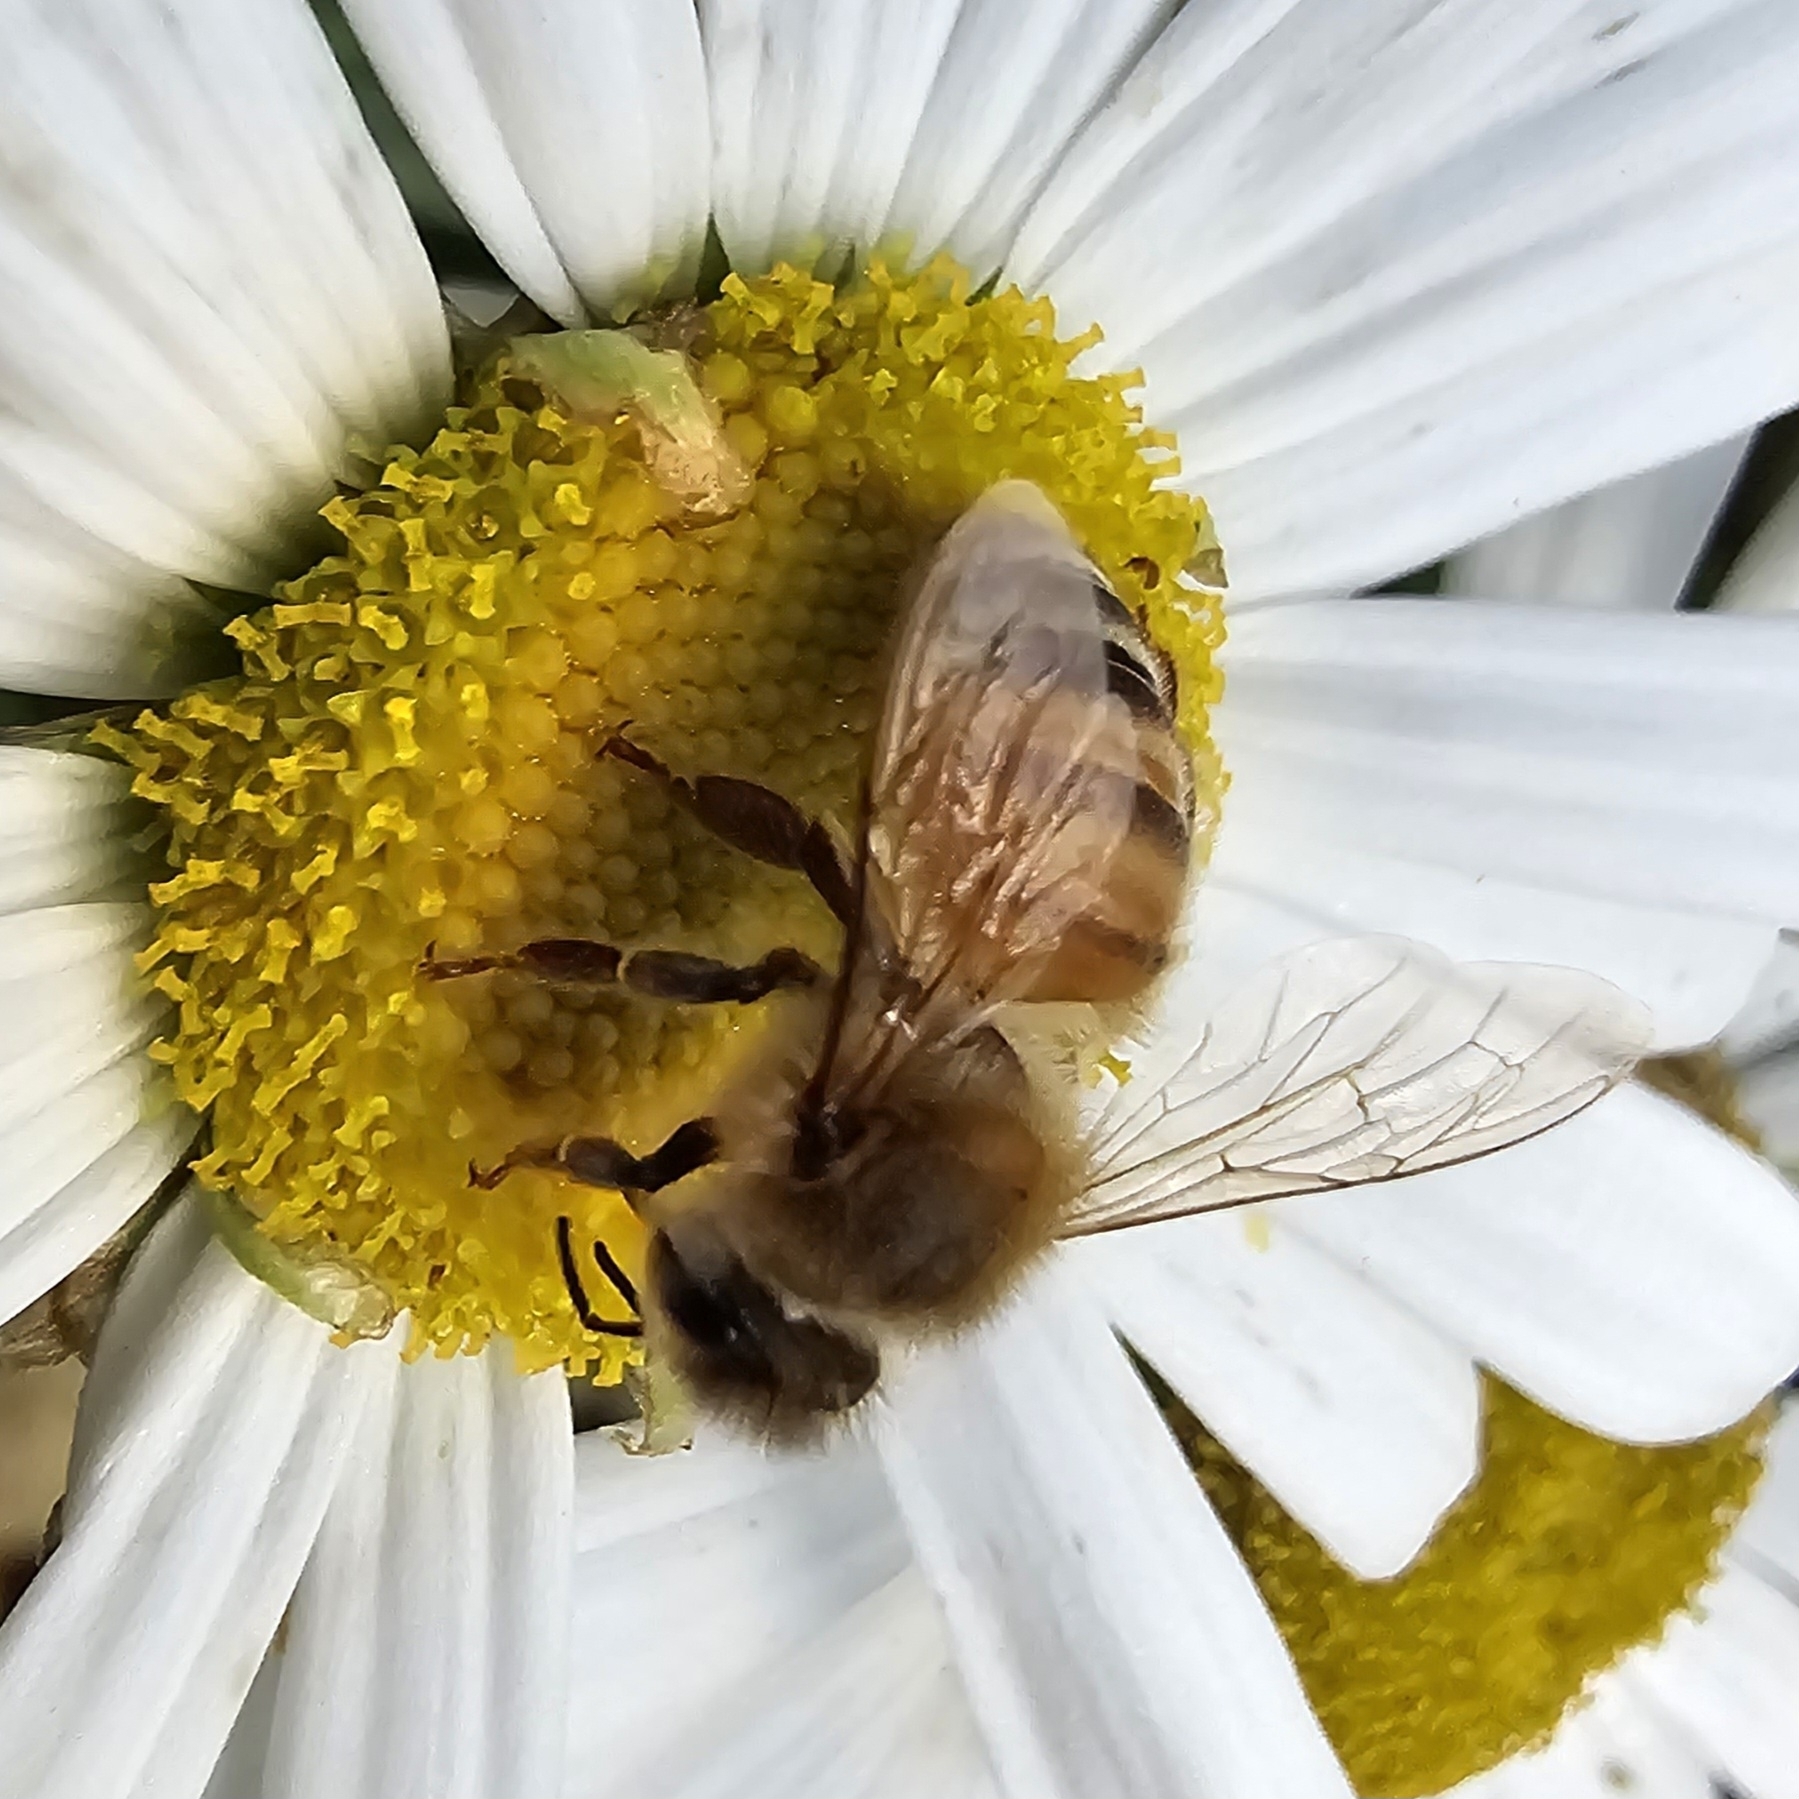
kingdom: Animalia
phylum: Arthropoda
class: Insecta
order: Hymenoptera
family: Apidae
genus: Apis
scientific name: Apis mellifera
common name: Honey bee
